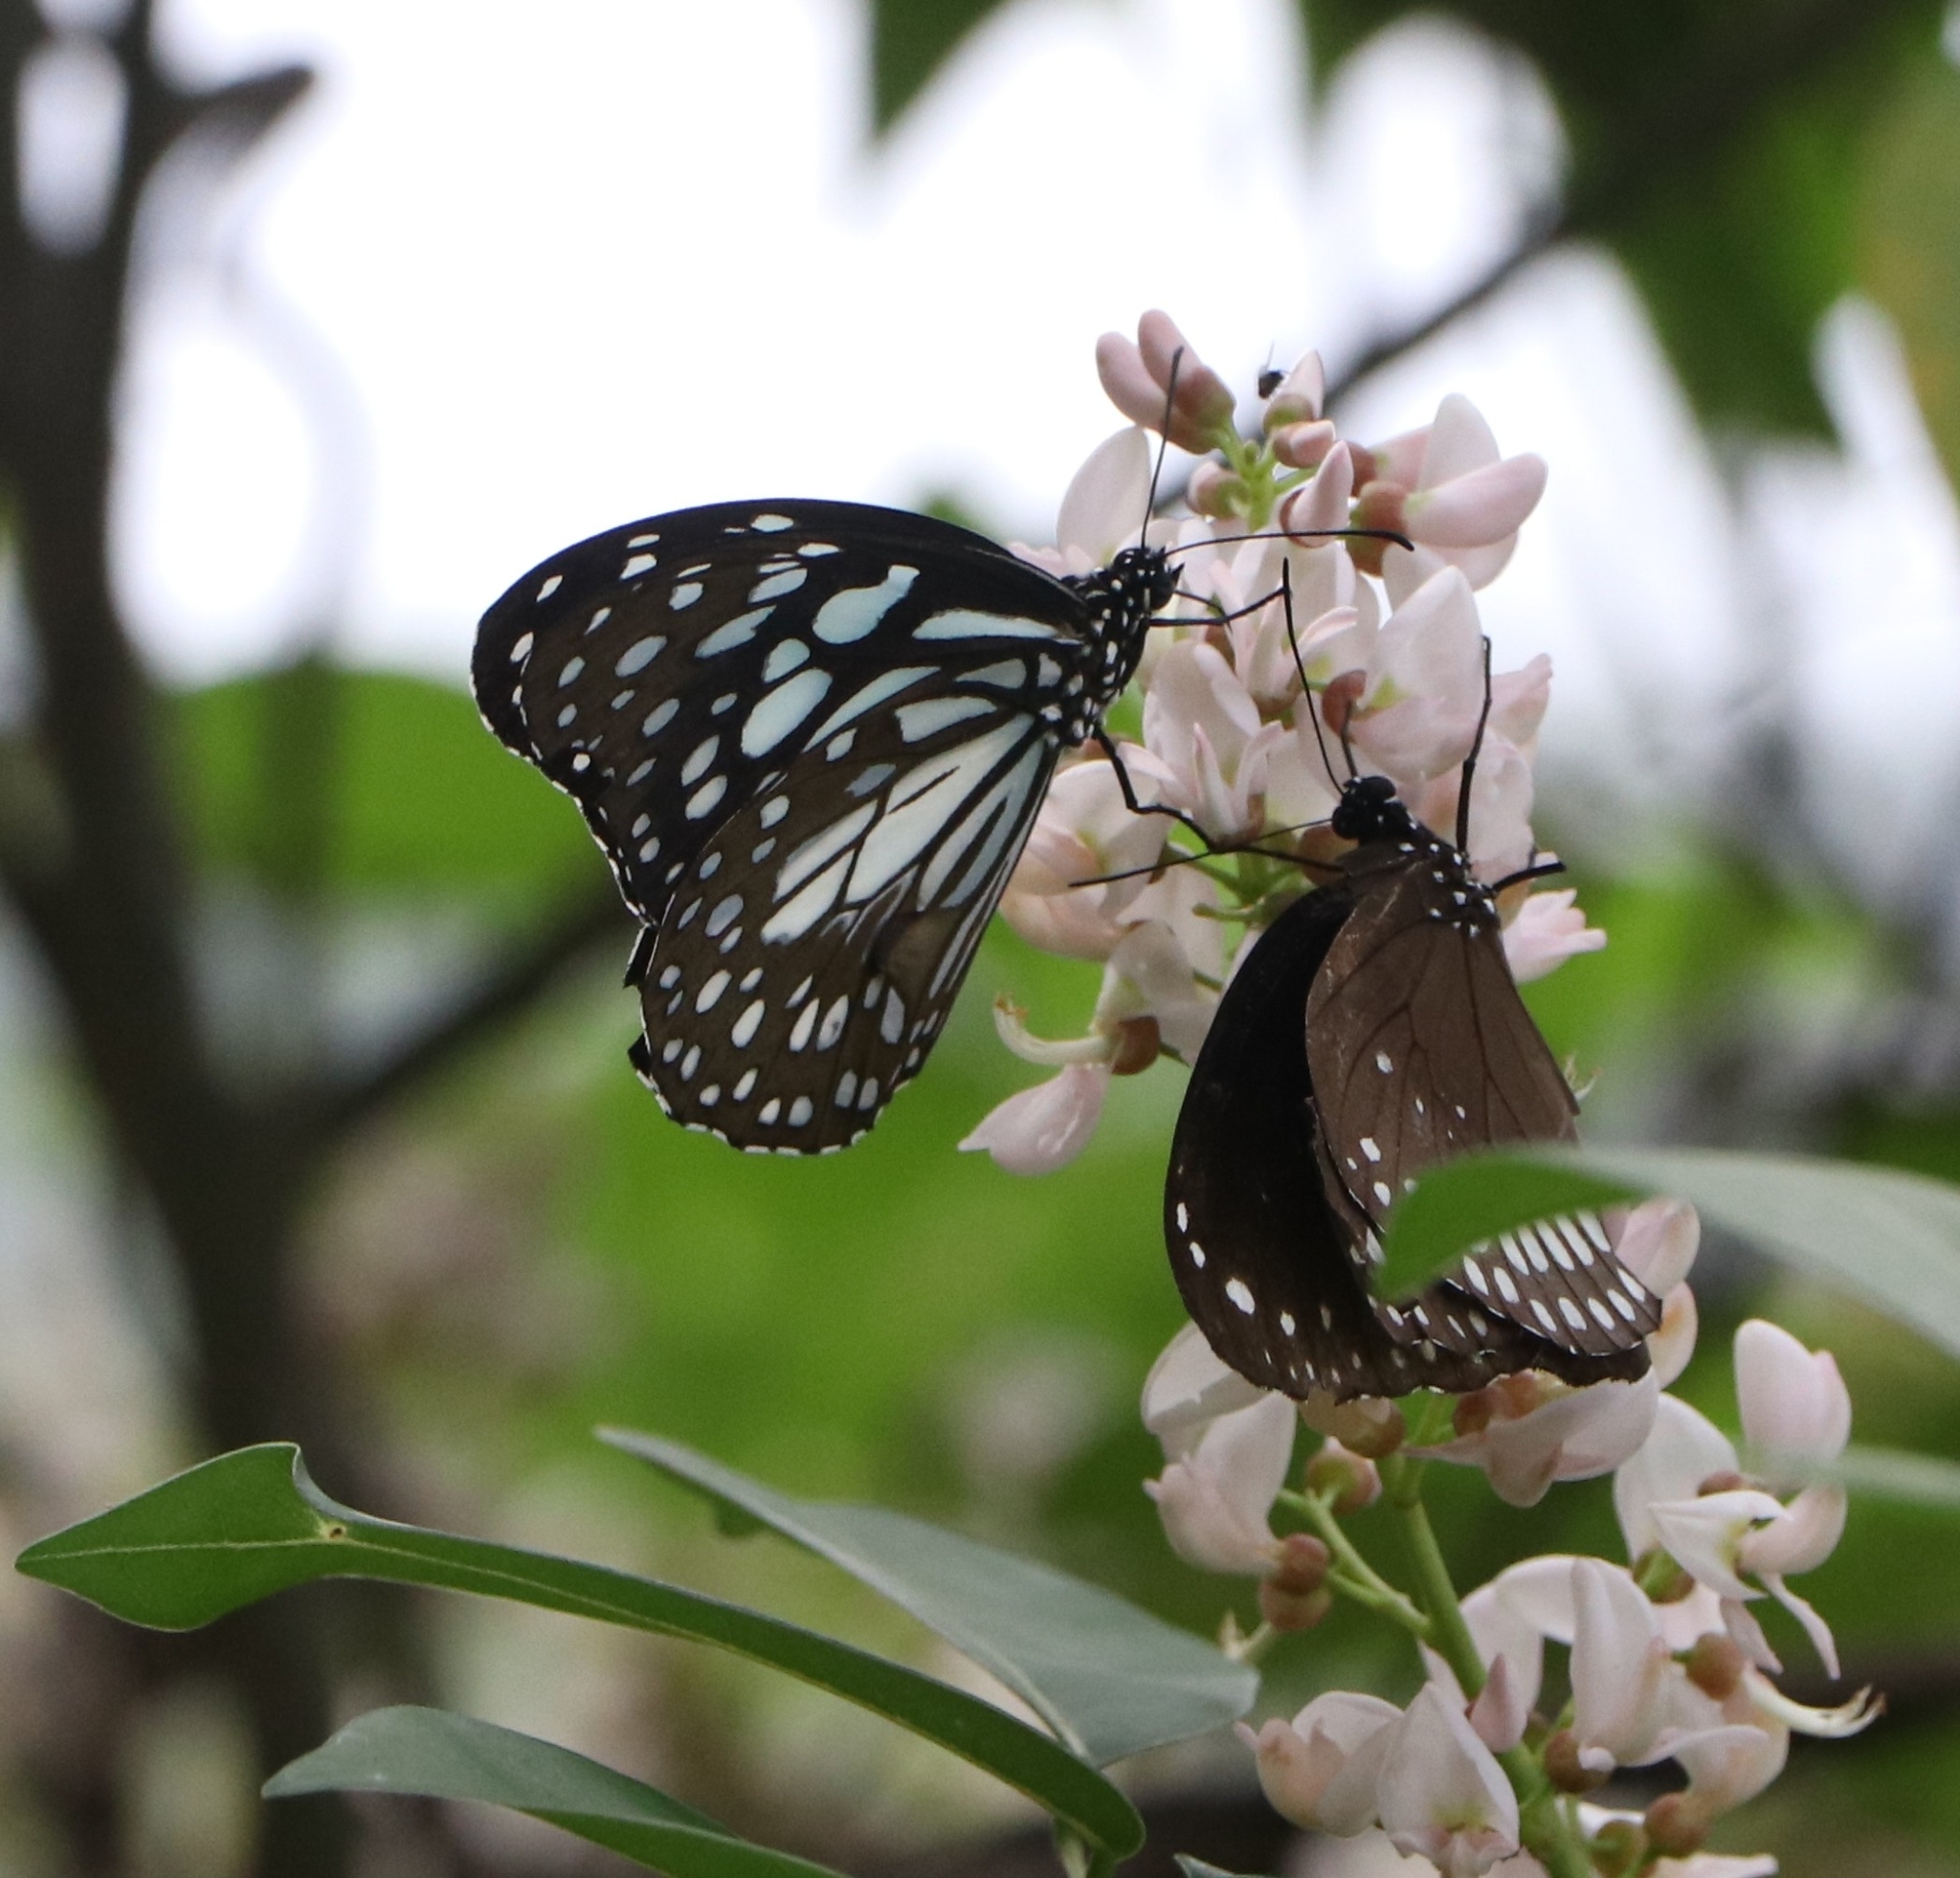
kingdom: Animalia
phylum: Arthropoda
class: Insecta
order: Lepidoptera
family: Nymphalidae
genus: Euploea
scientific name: Euploea core
